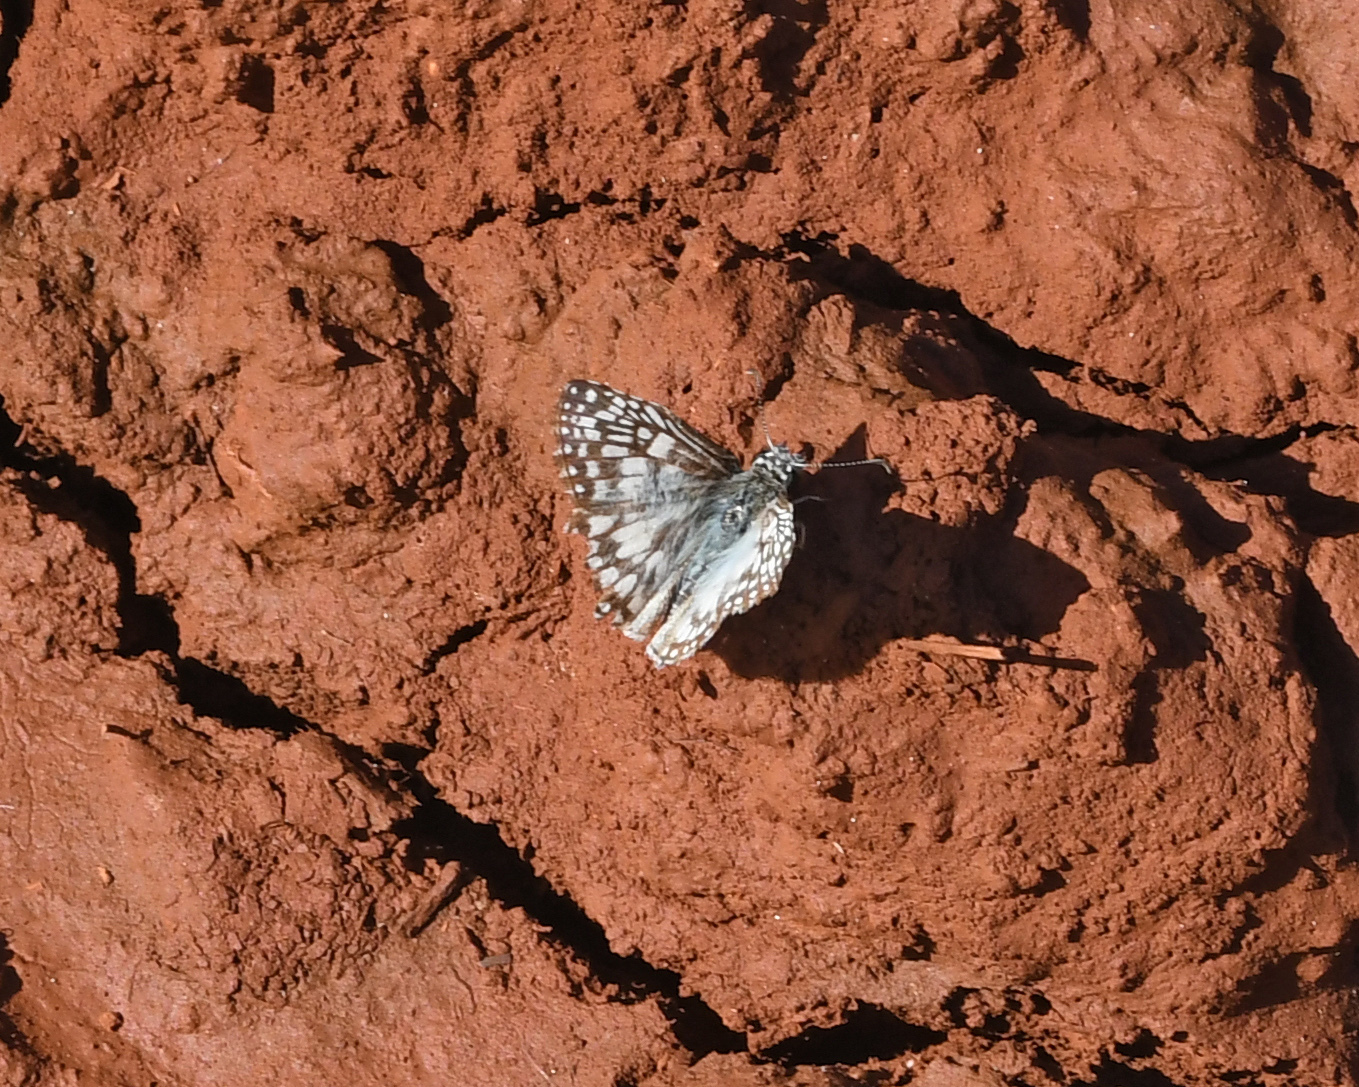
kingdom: Animalia
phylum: Arthropoda
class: Insecta
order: Lepidoptera
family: Hesperiidae
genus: Pyrgus
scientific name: Pyrgus oileus
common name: Tropical checkered-skipper
